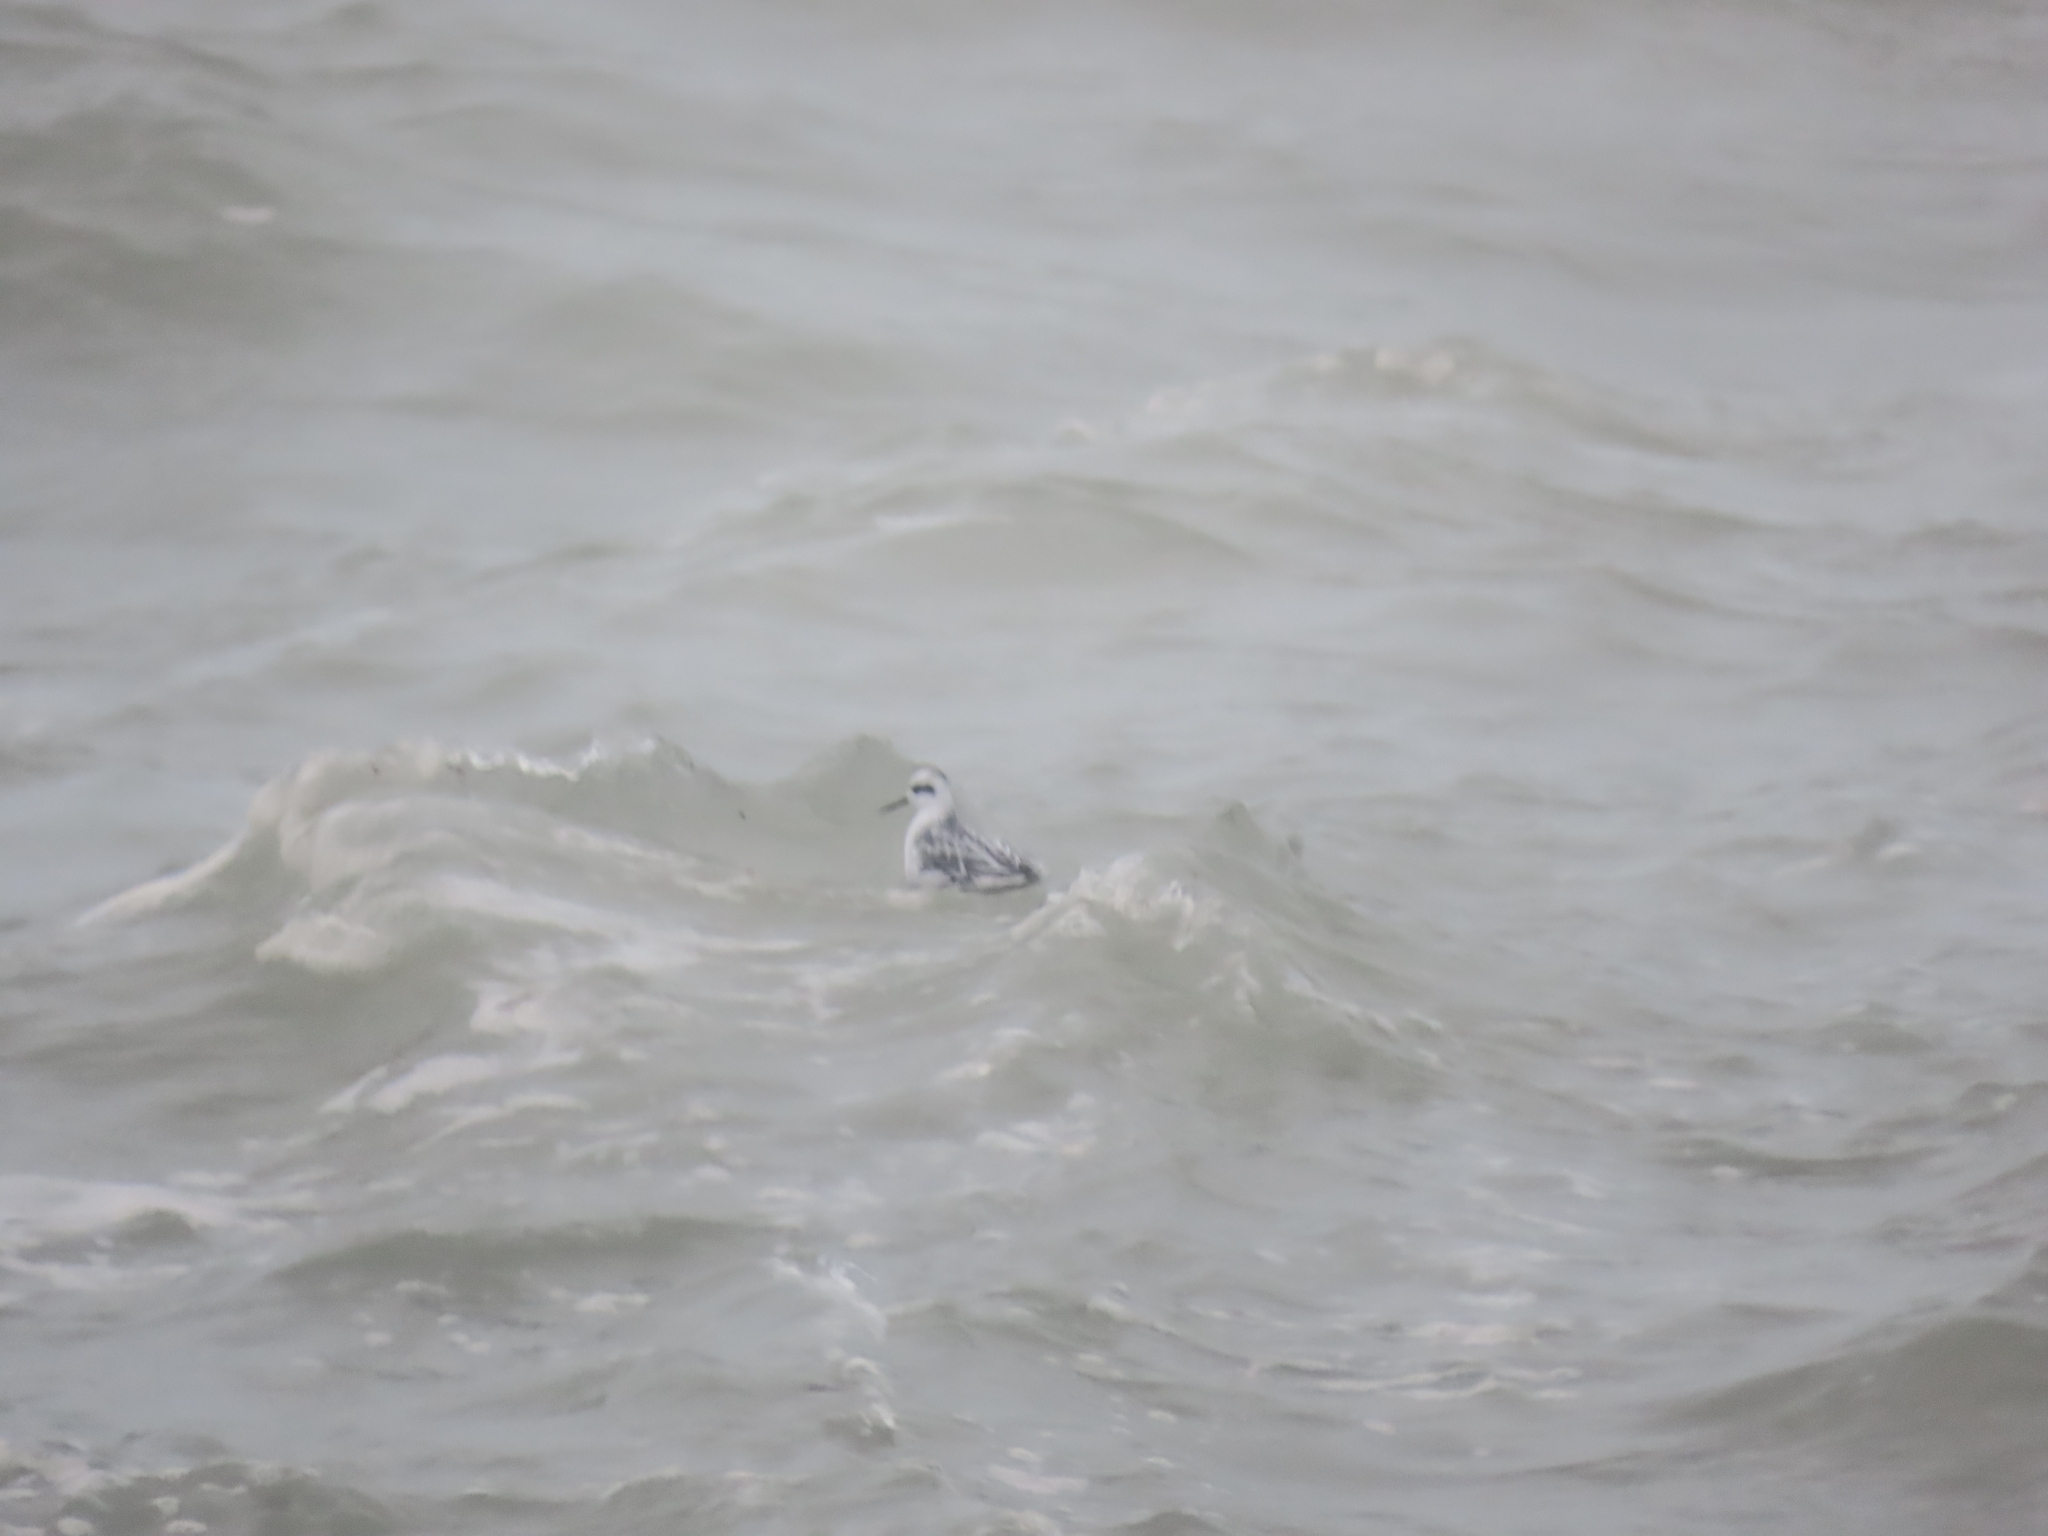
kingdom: Animalia
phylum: Chordata
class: Aves
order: Charadriiformes
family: Scolopacidae
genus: Phalaropus
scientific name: Phalaropus lobatus
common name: Red-necked phalarope
